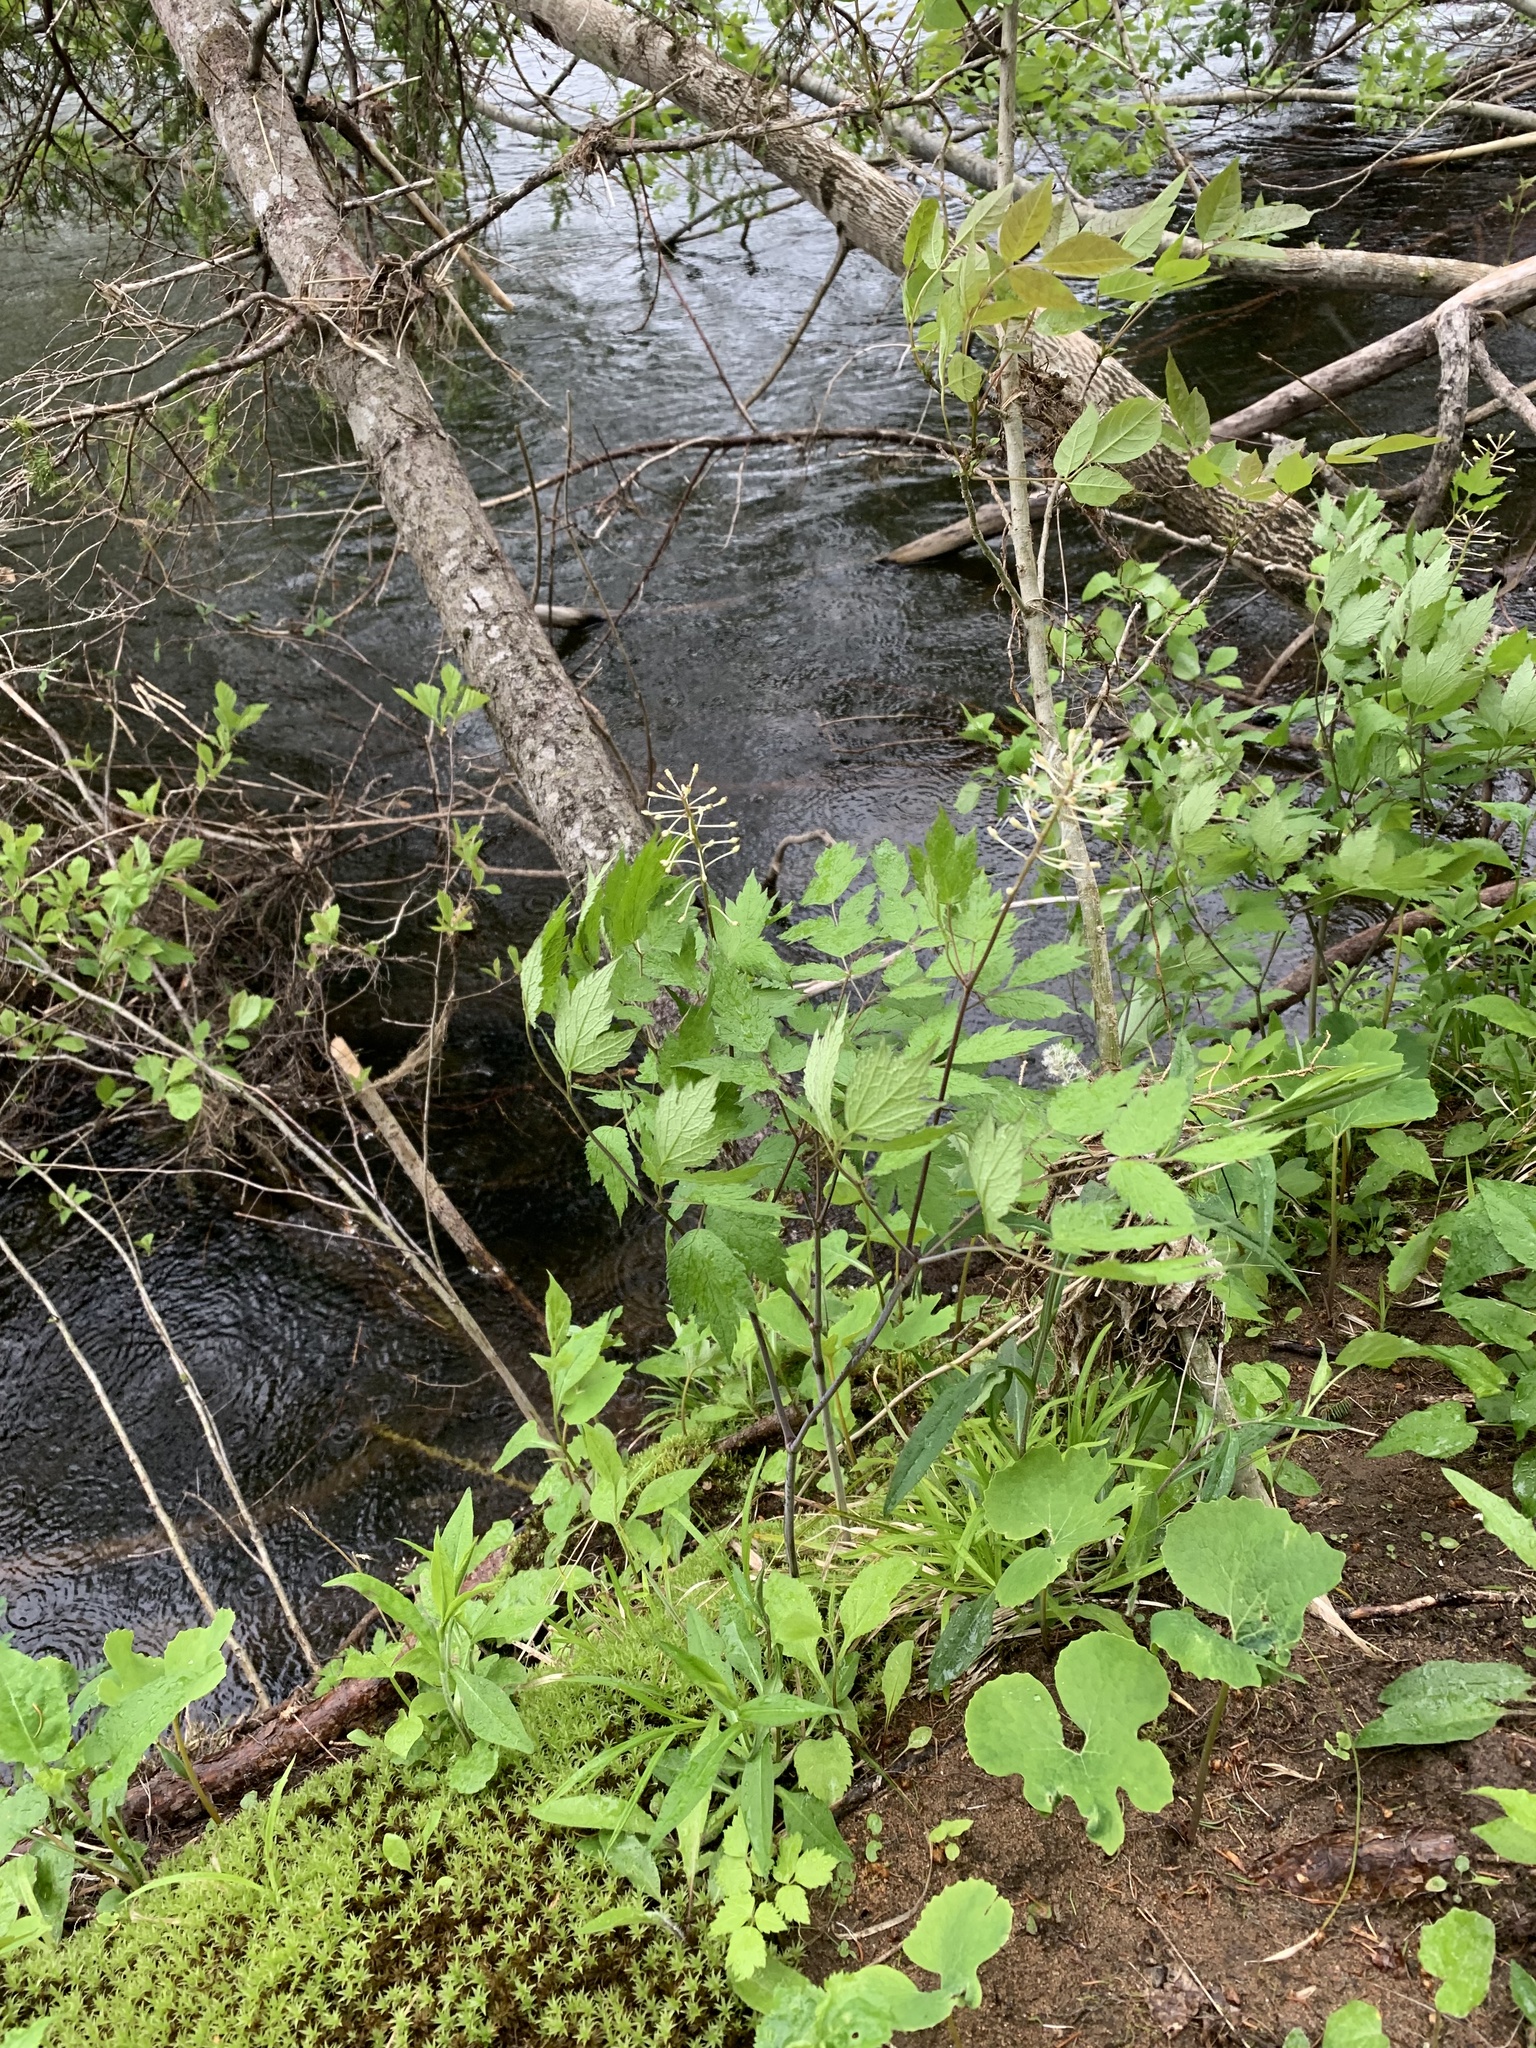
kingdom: Plantae
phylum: Tracheophyta
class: Magnoliopsida
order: Ranunculales
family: Ranunculaceae
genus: Actaea
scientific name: Actaea rubra
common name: Red baneberry
